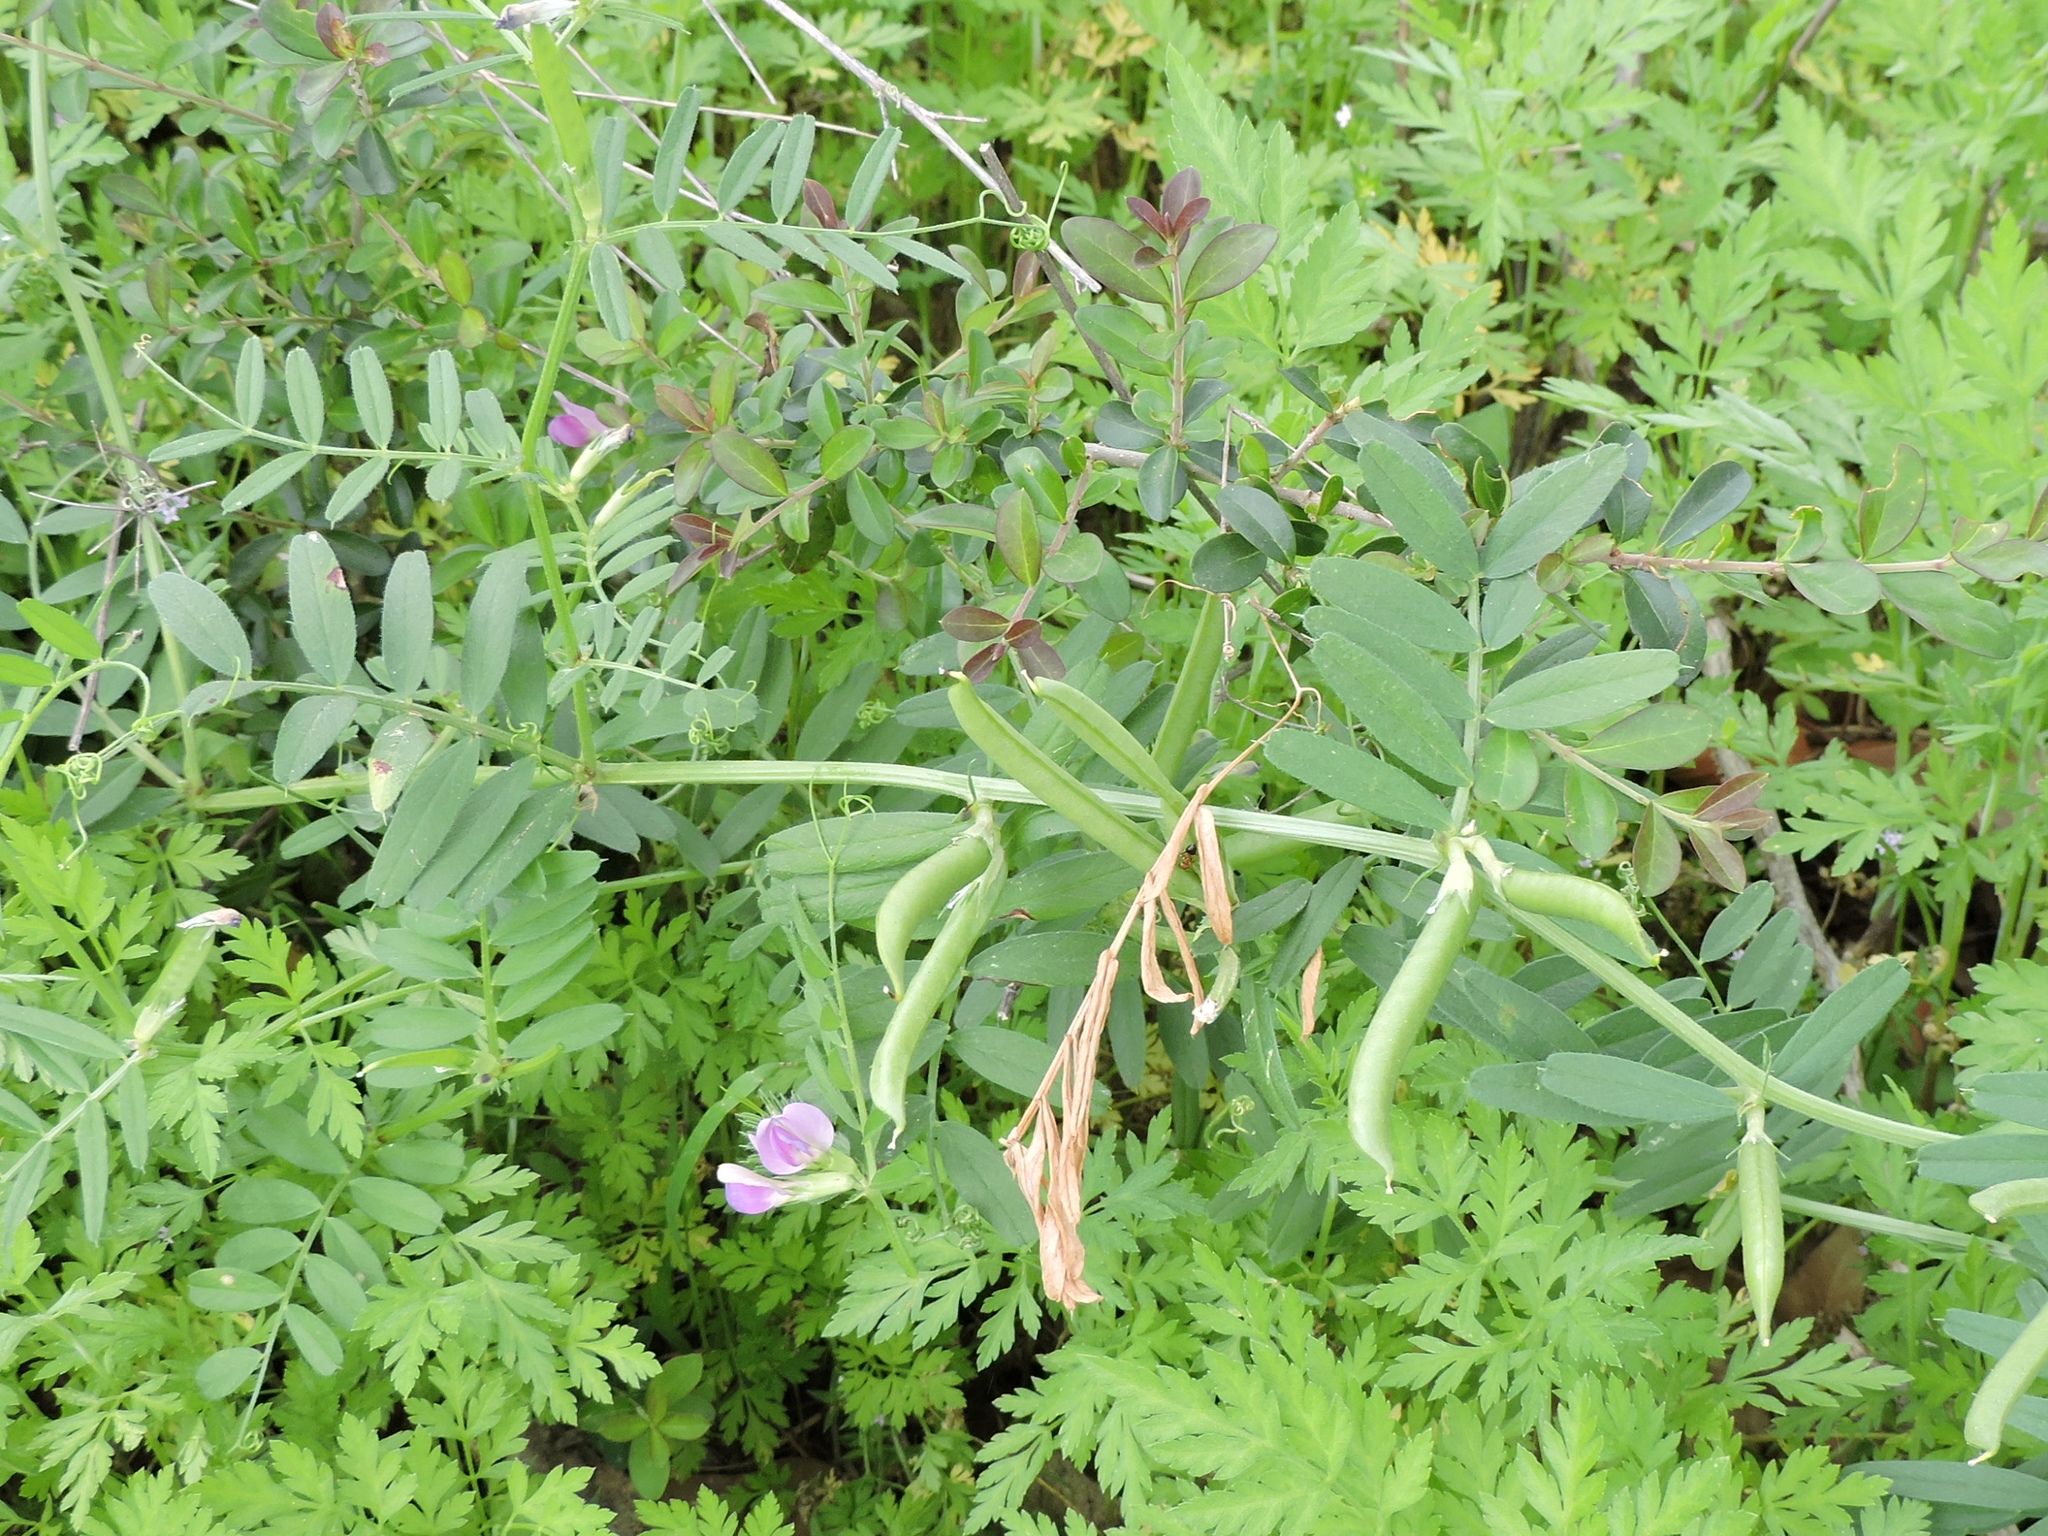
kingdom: Plantae
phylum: Tracheophyta
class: Magnoliopsida
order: Fabales
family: Fabaceae
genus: Vicia
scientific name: Vicia sativa
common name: Garden vetch
